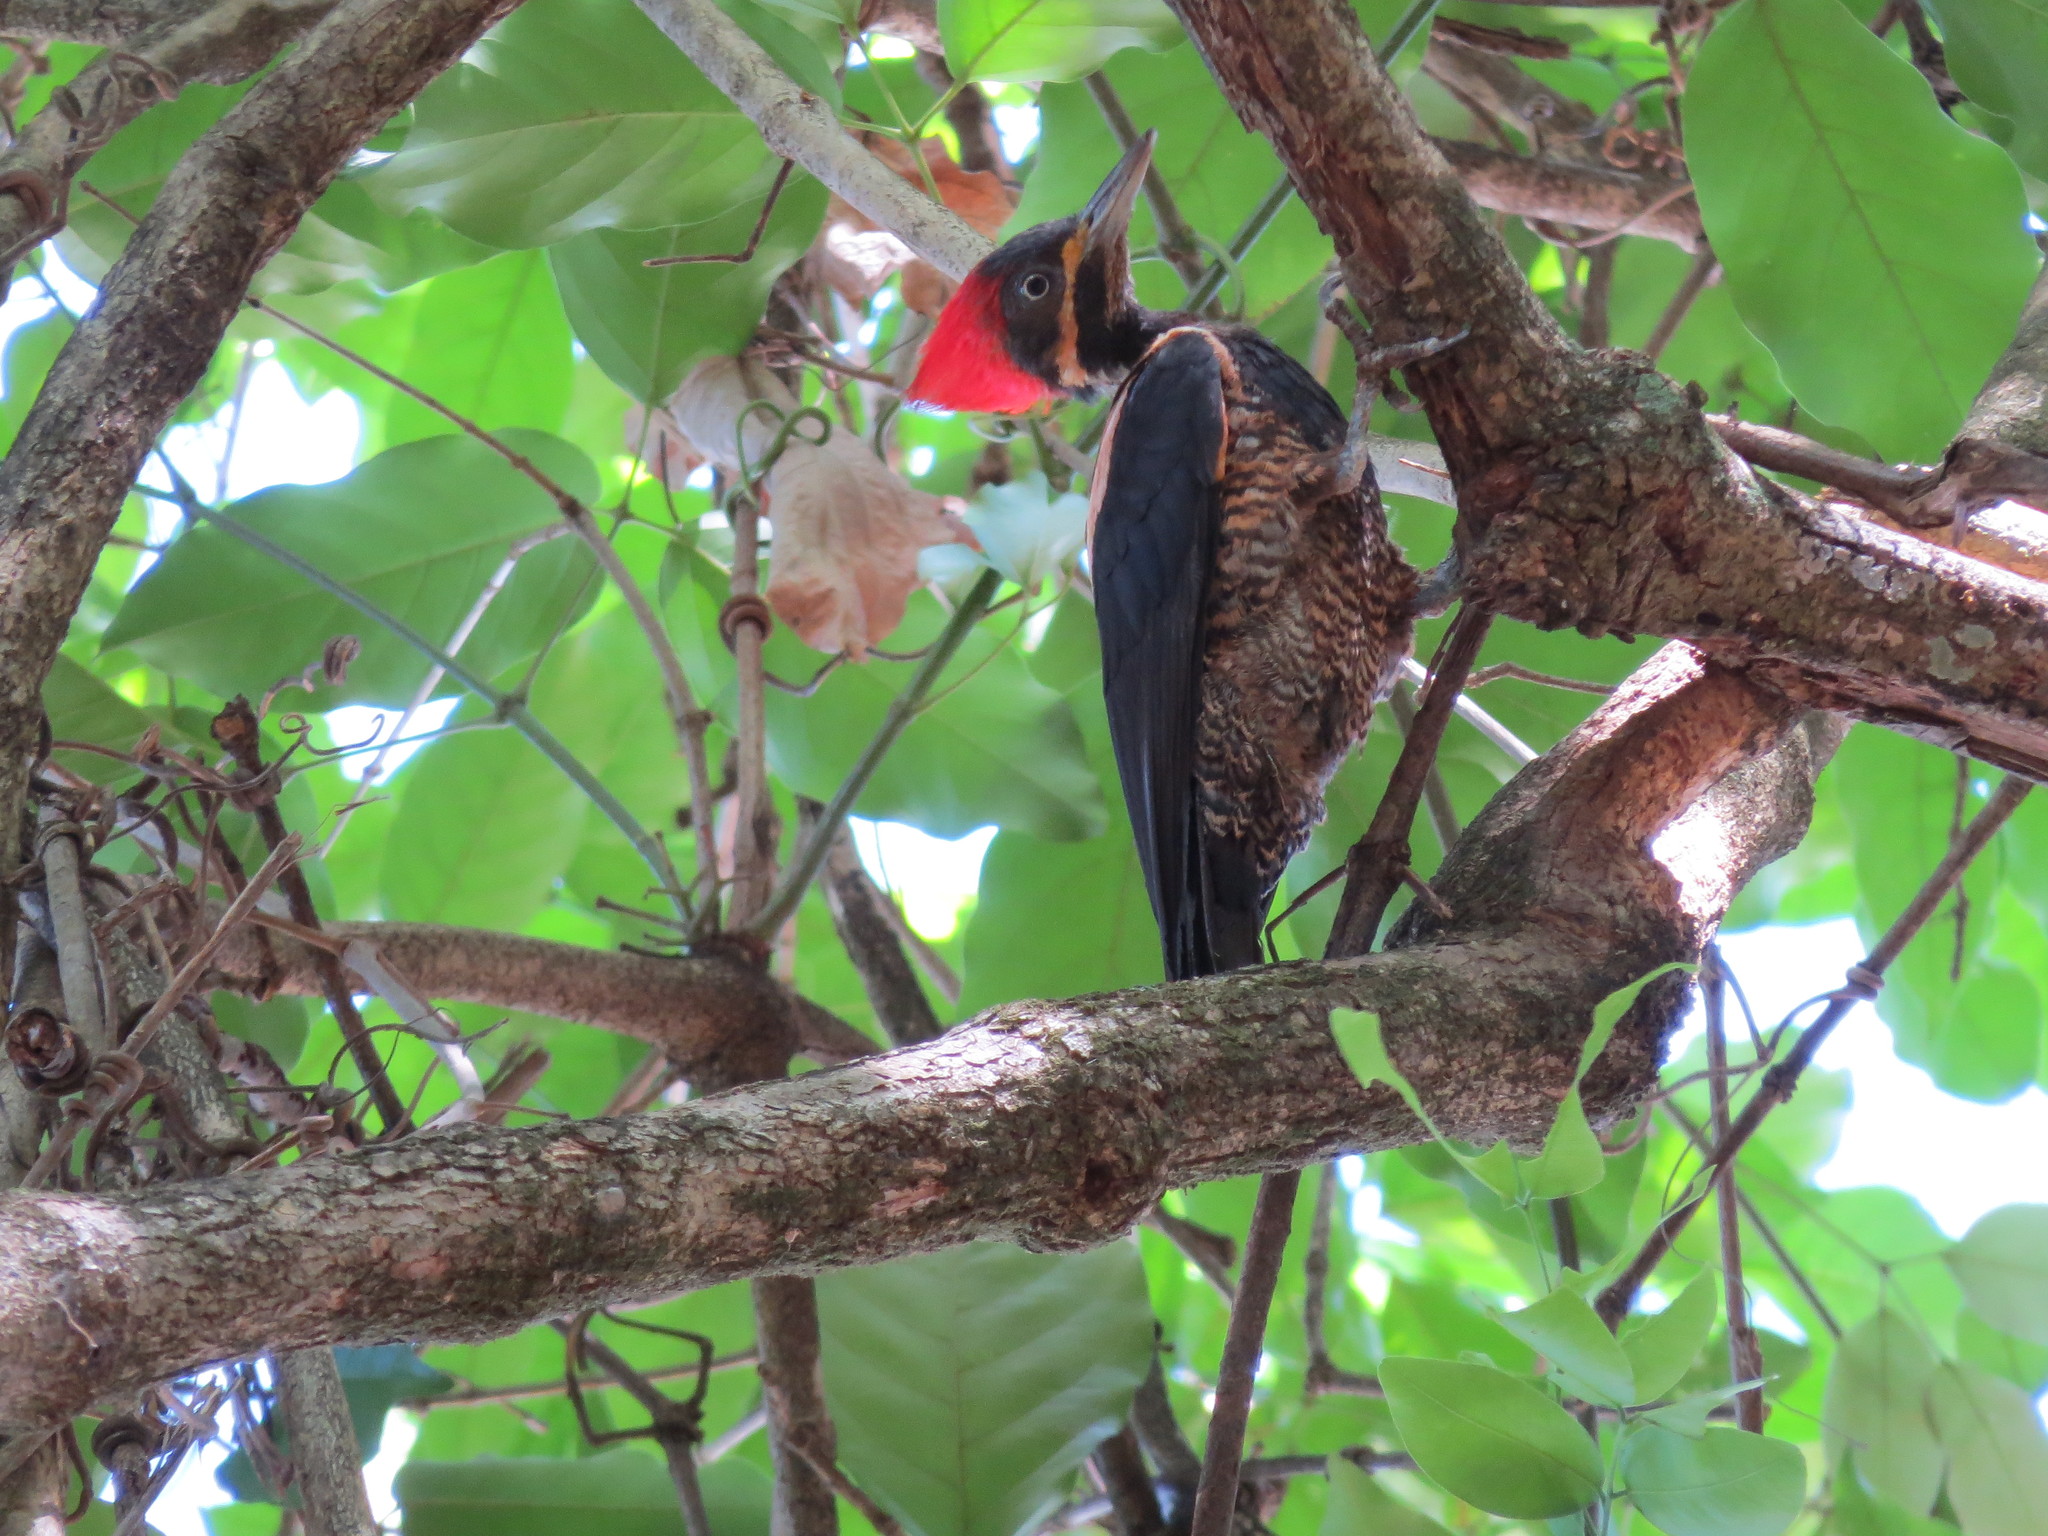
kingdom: Animalia
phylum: Chordata
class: Aves
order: Piciformes
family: Picidae
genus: Dryocopus
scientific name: Dryocopus lineatus
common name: Lineated woodpecker
